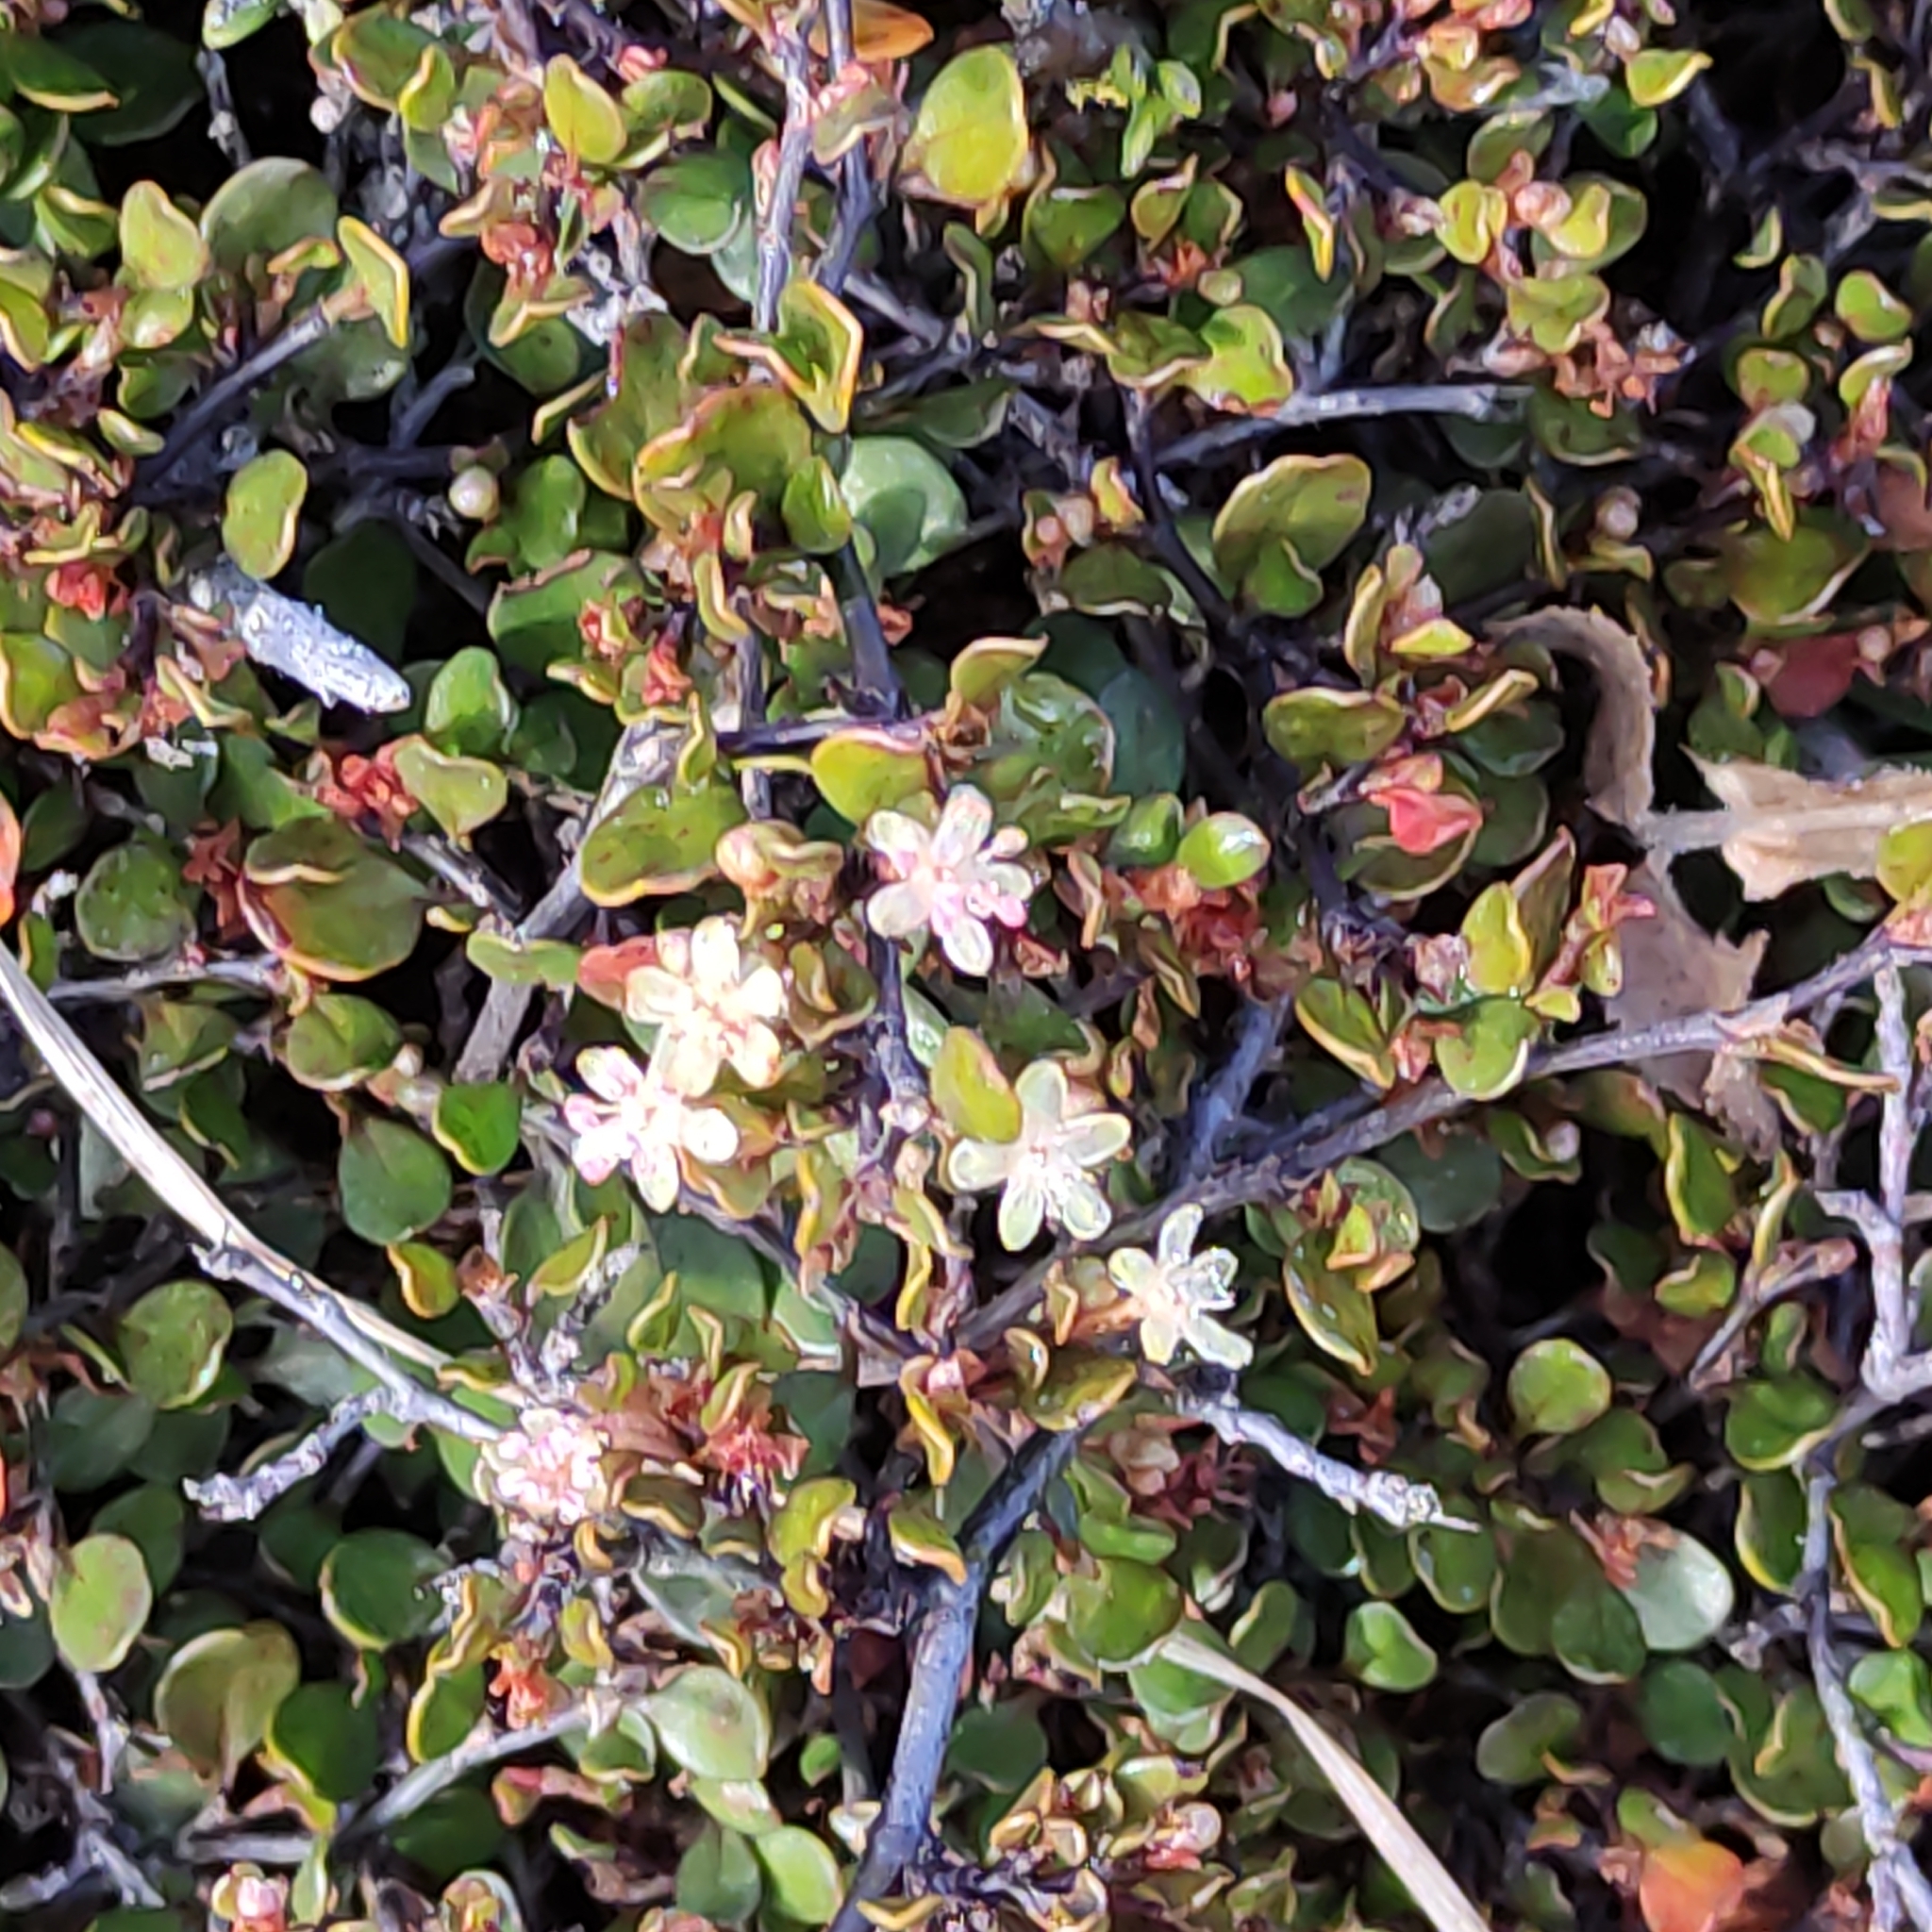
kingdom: Plantae
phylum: Tracheophyta
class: Magnoliopsida
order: Caryophyllales
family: Polygonaceae
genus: Muehlenbeckia
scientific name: Muehlenbeckia axillaris
